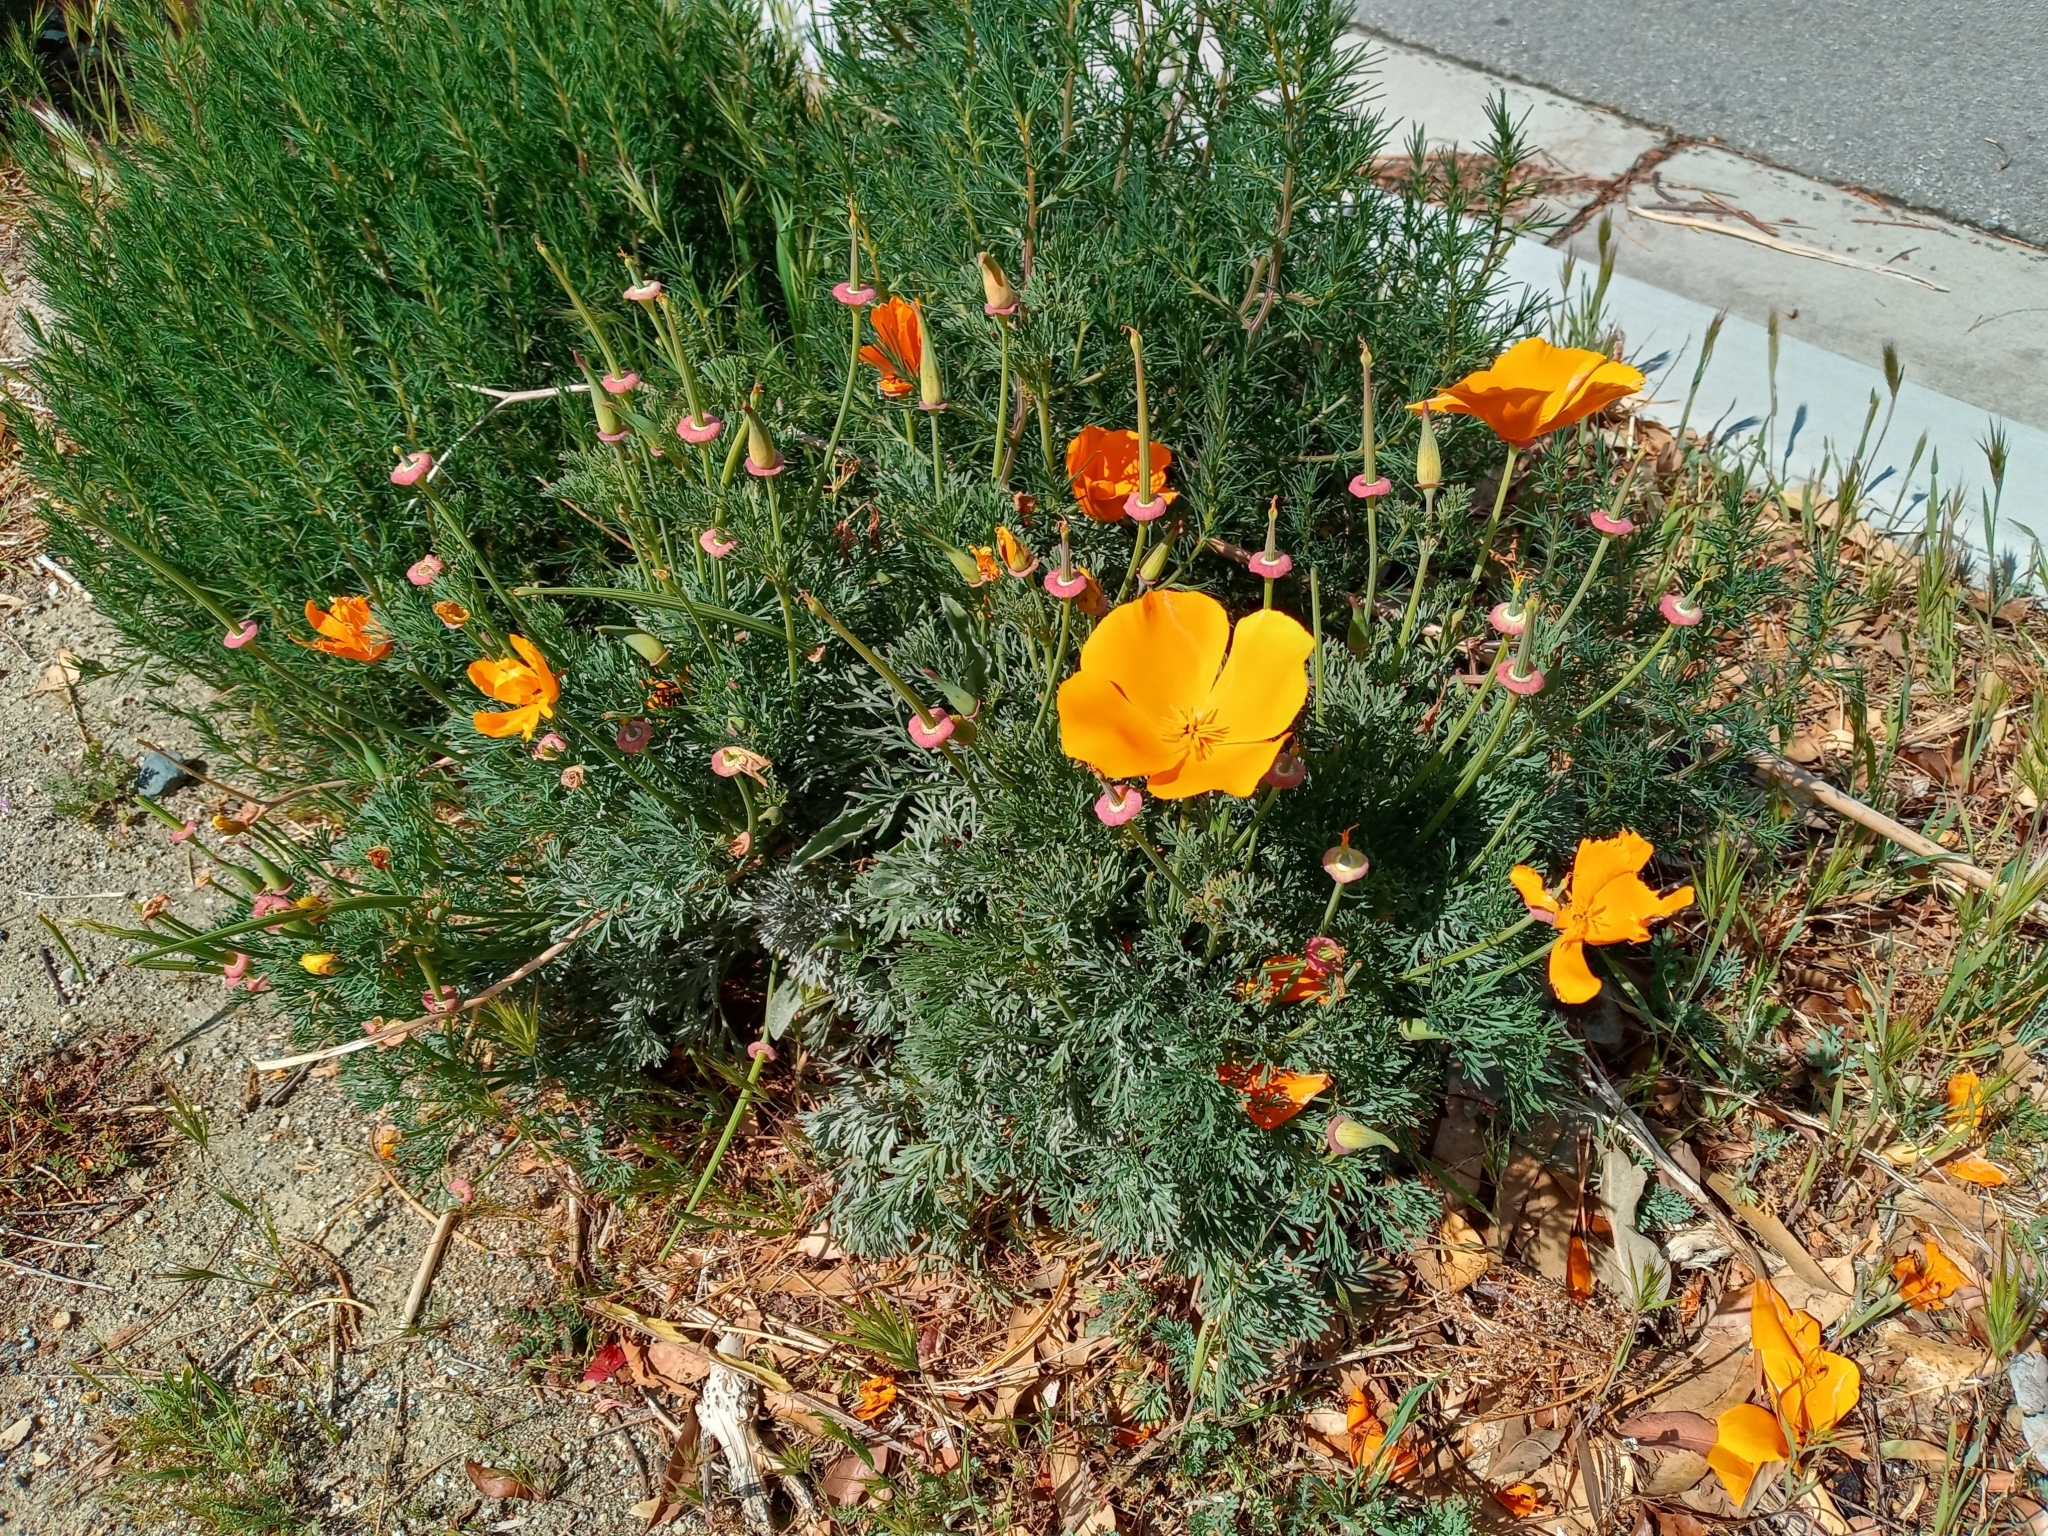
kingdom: Plantae
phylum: Tracheophyta
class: Magnoliopsida
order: Ranunculales
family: Papaveraceae
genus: Eschscholzia
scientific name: Eschscholzia californica
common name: California poppy
